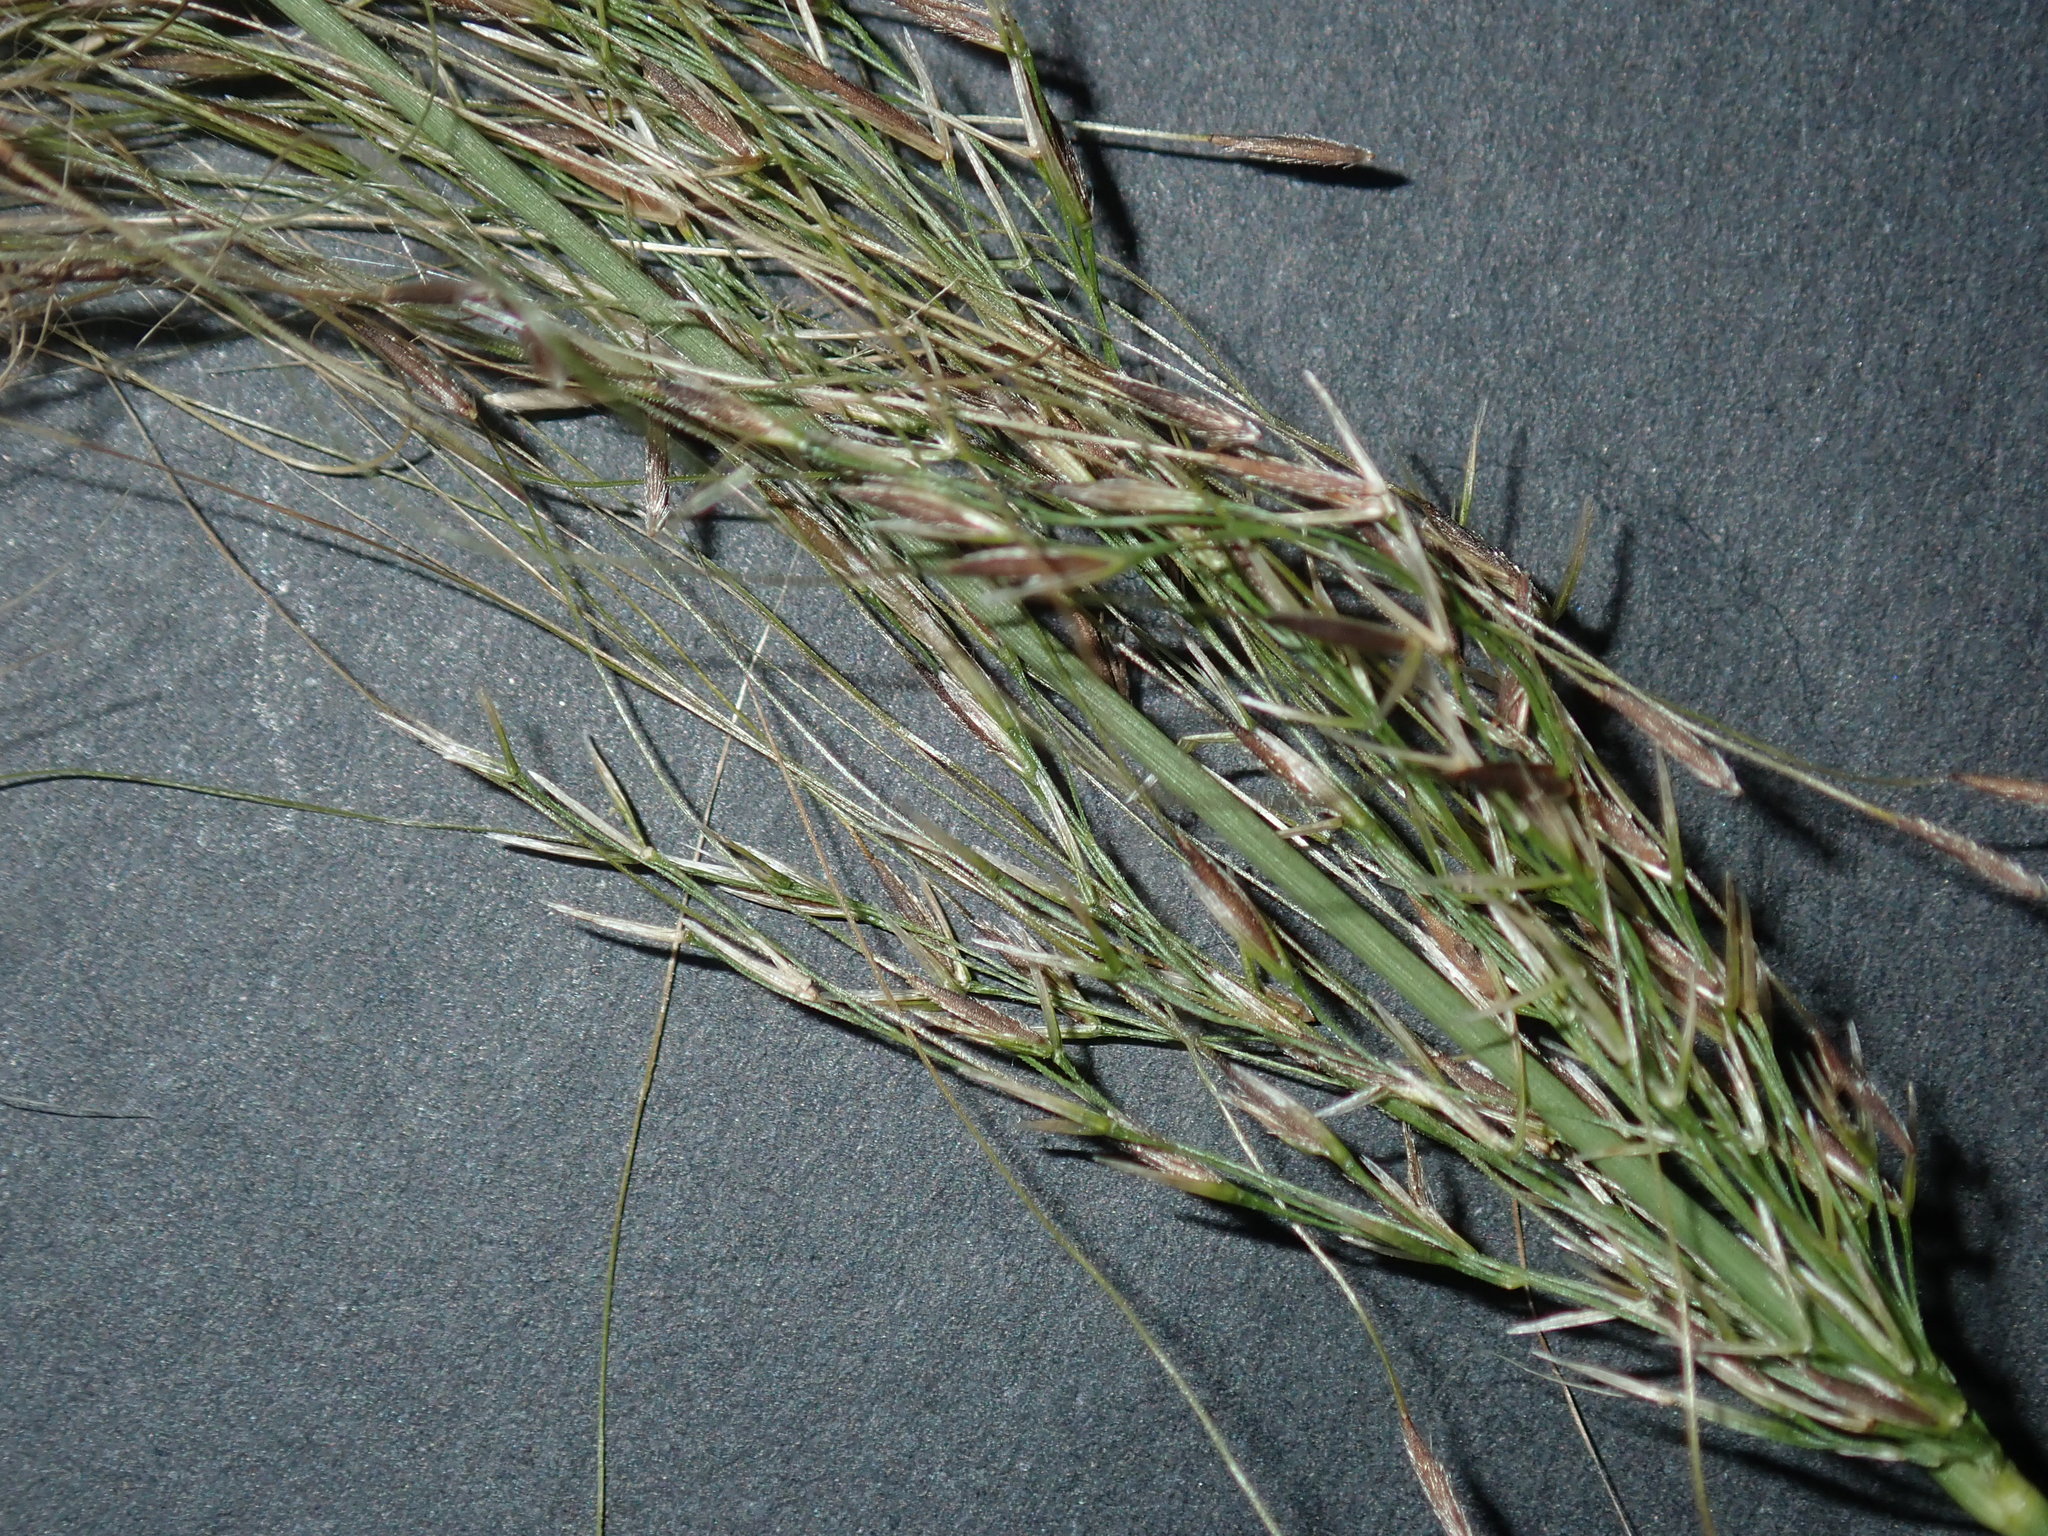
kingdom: Plantae
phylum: Tracheophyta
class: Liliopsida
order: Poales
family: Poaceae
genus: Austrostipa
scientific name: Austrostipa verticillata
